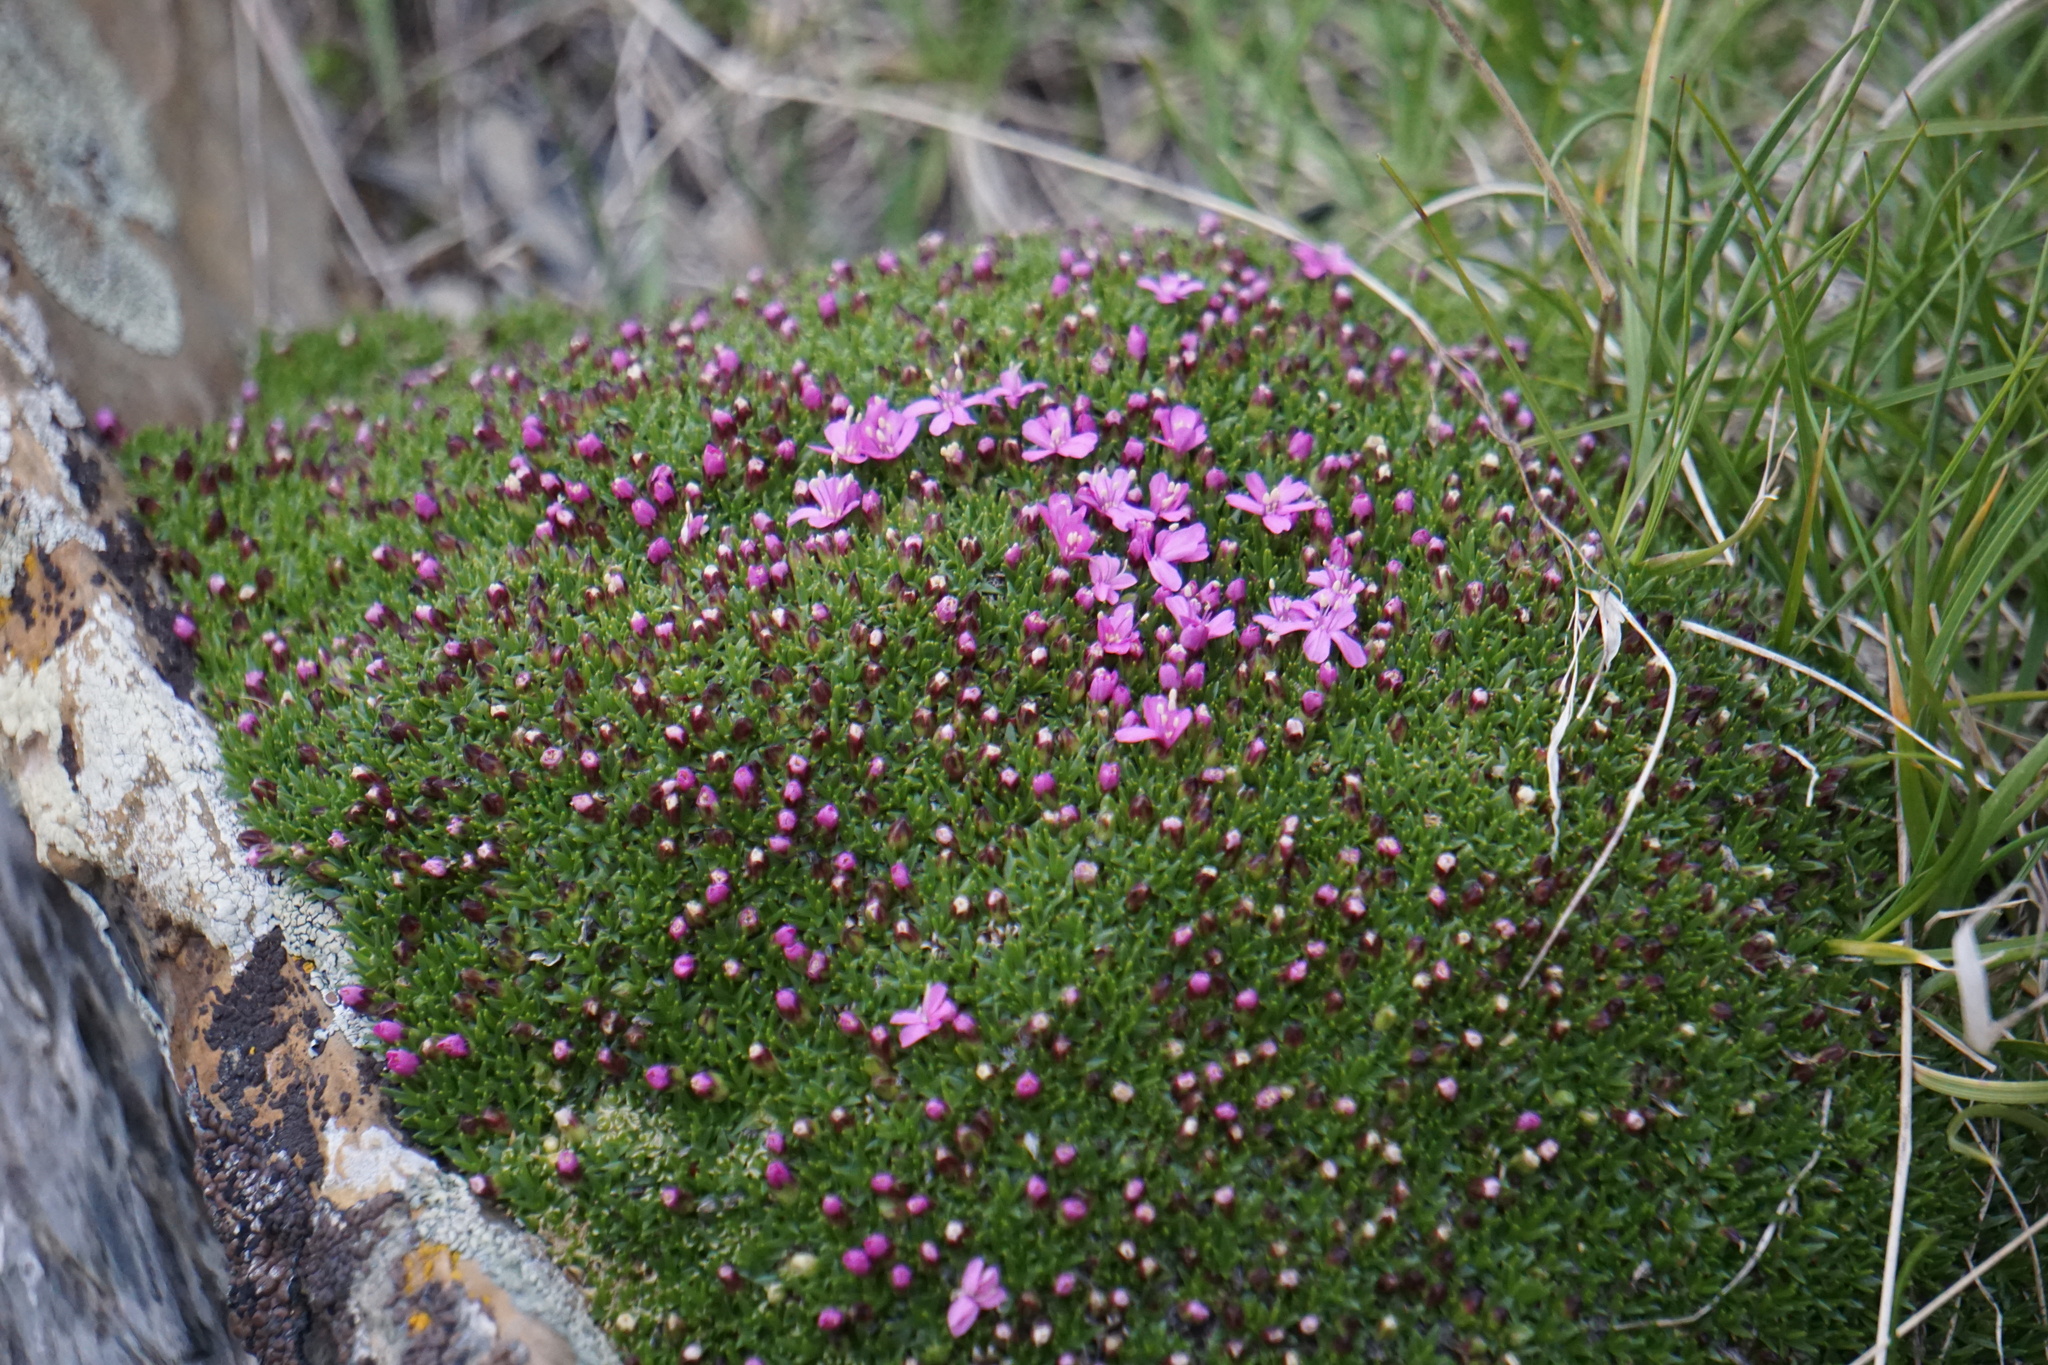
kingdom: Plantae
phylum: Tracheophyta
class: Magnoliopsida
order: Caryophyllales
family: Caryophyllaceae
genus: Silene
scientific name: Silene acaulis
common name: Moss campion
